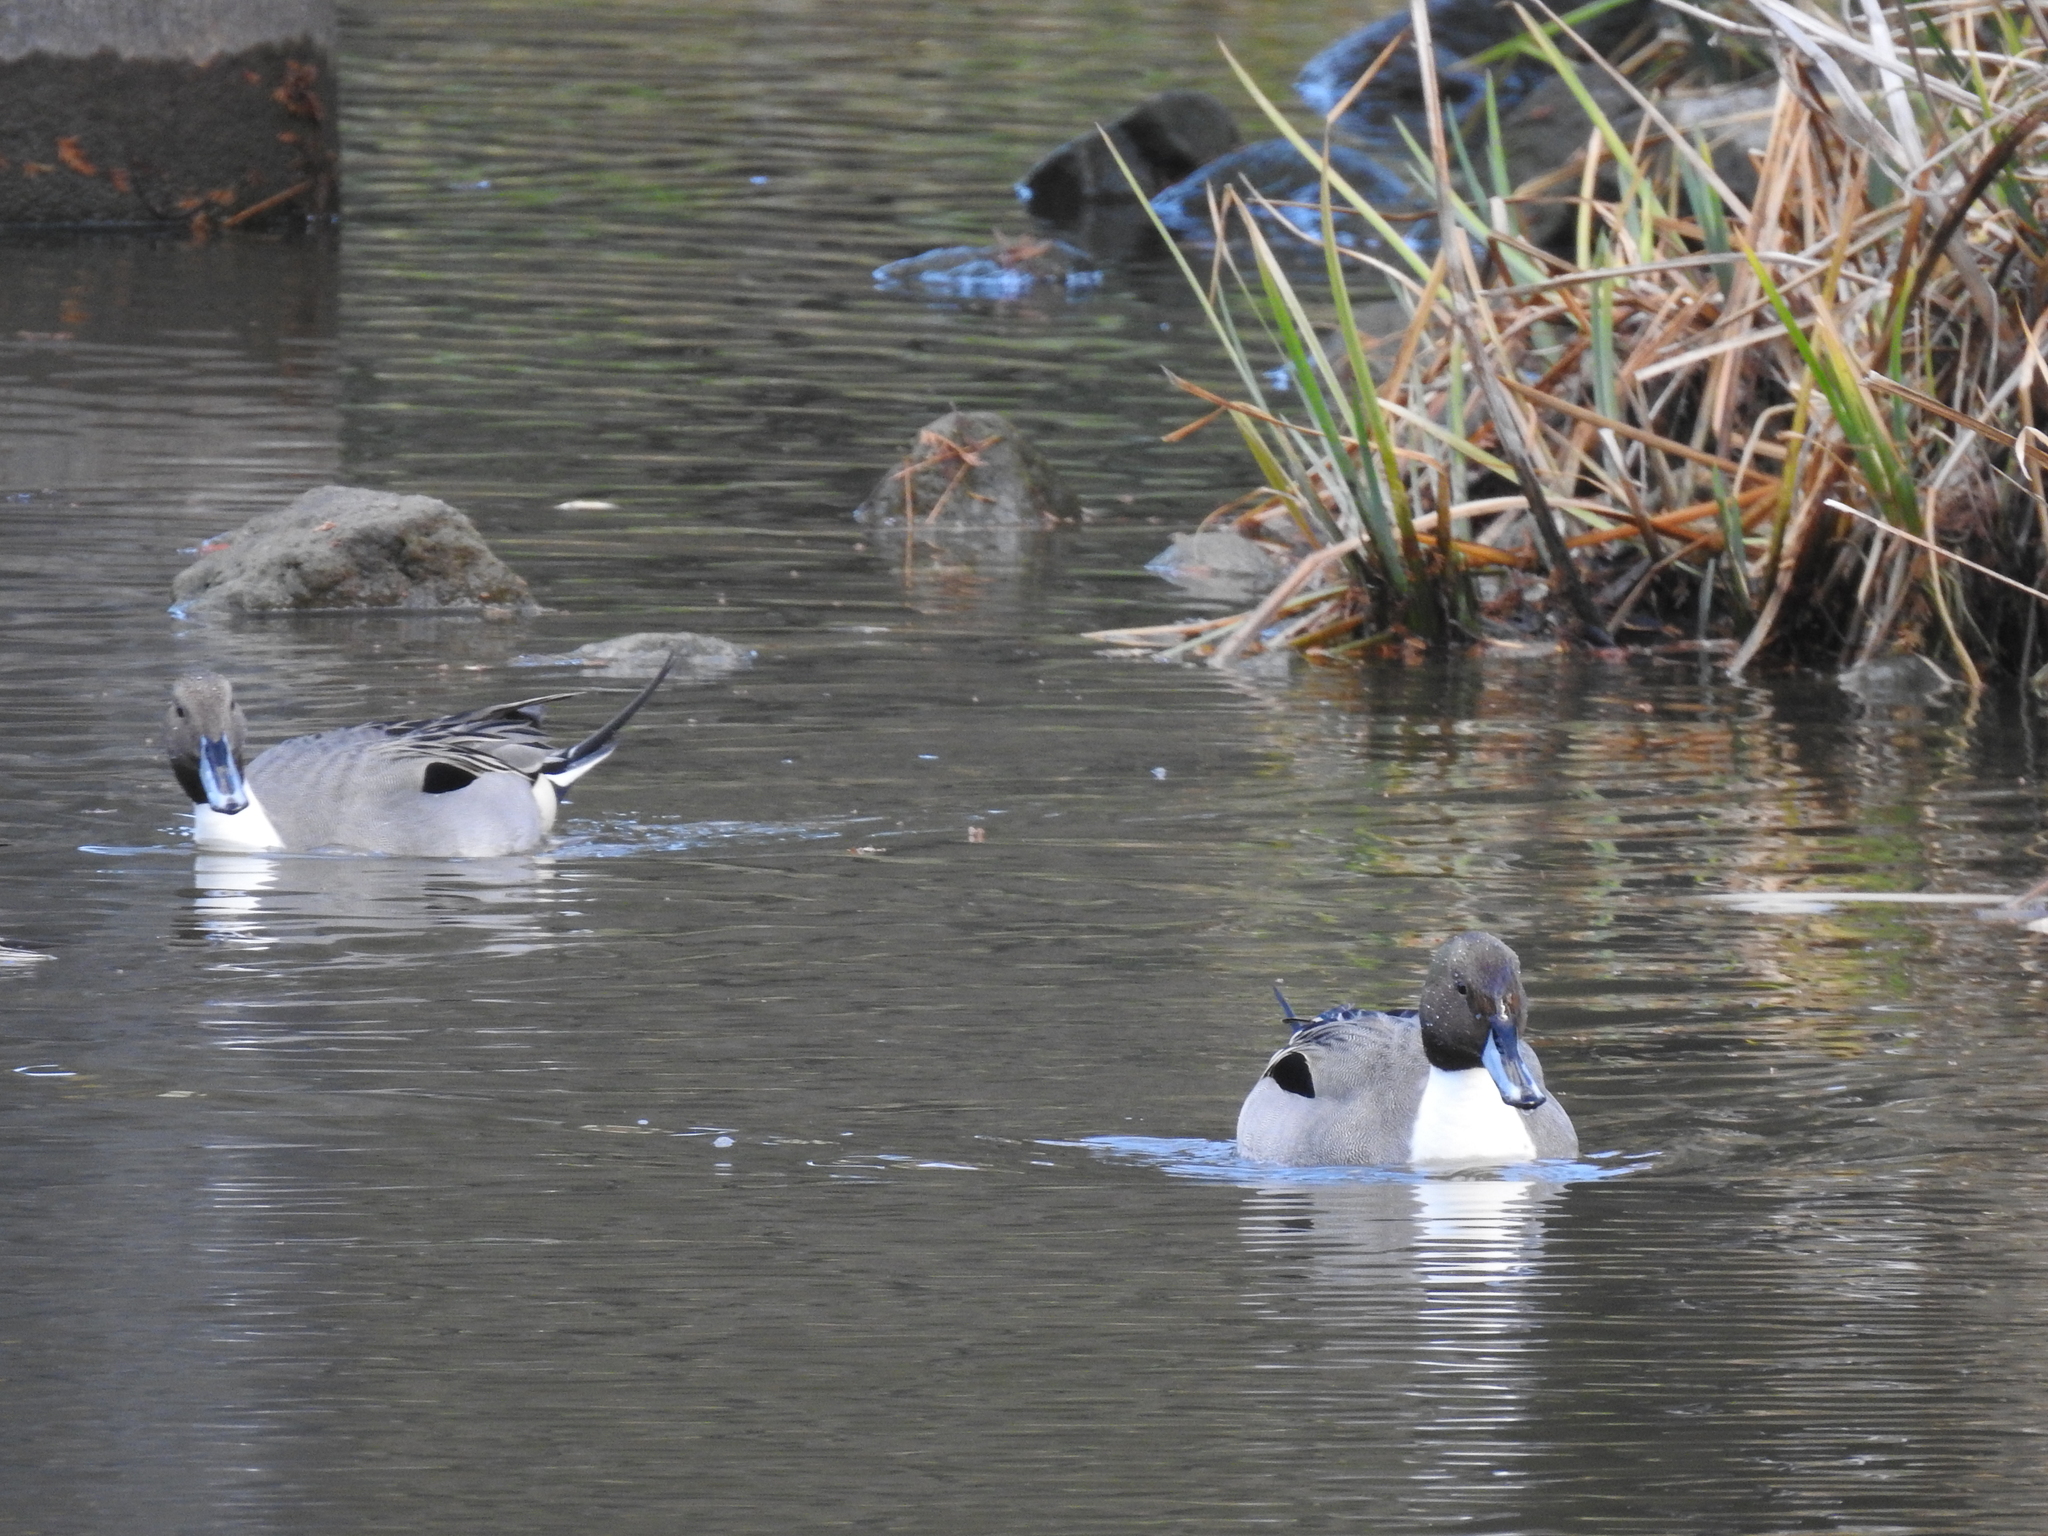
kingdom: Animalia
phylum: Chordata
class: Aves
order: Anseriformes
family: Anatidae
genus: Anas
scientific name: Anas acuta
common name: Northern pintail
